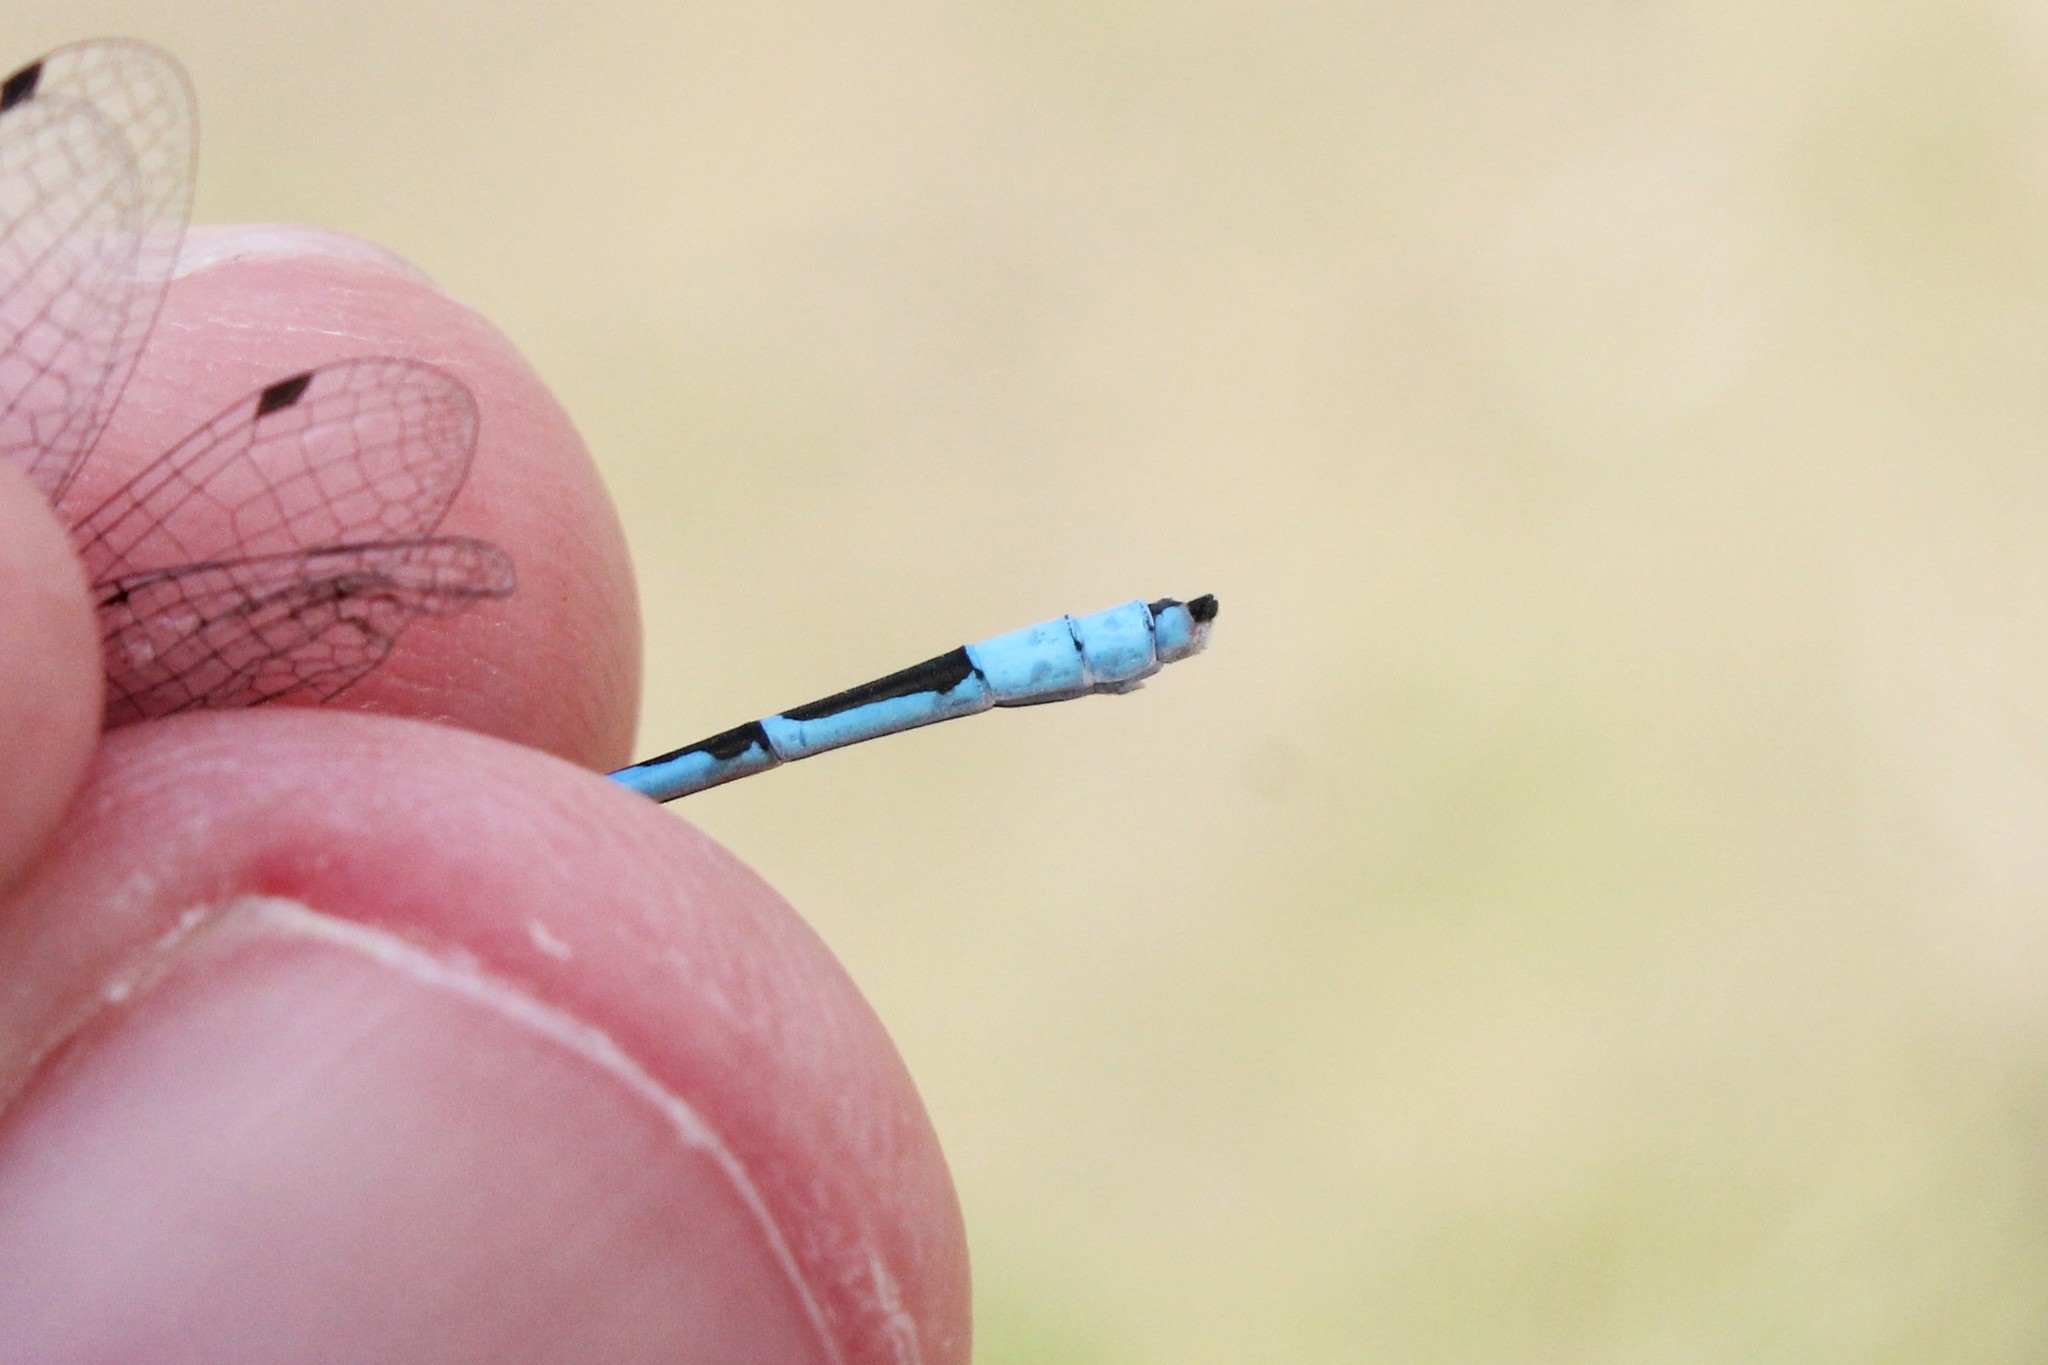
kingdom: Animalia
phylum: Arthropoda
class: Insecta
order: Odonata
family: Coenagrionidae
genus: Enallagma
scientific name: Enallagma civile
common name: Damselfly
